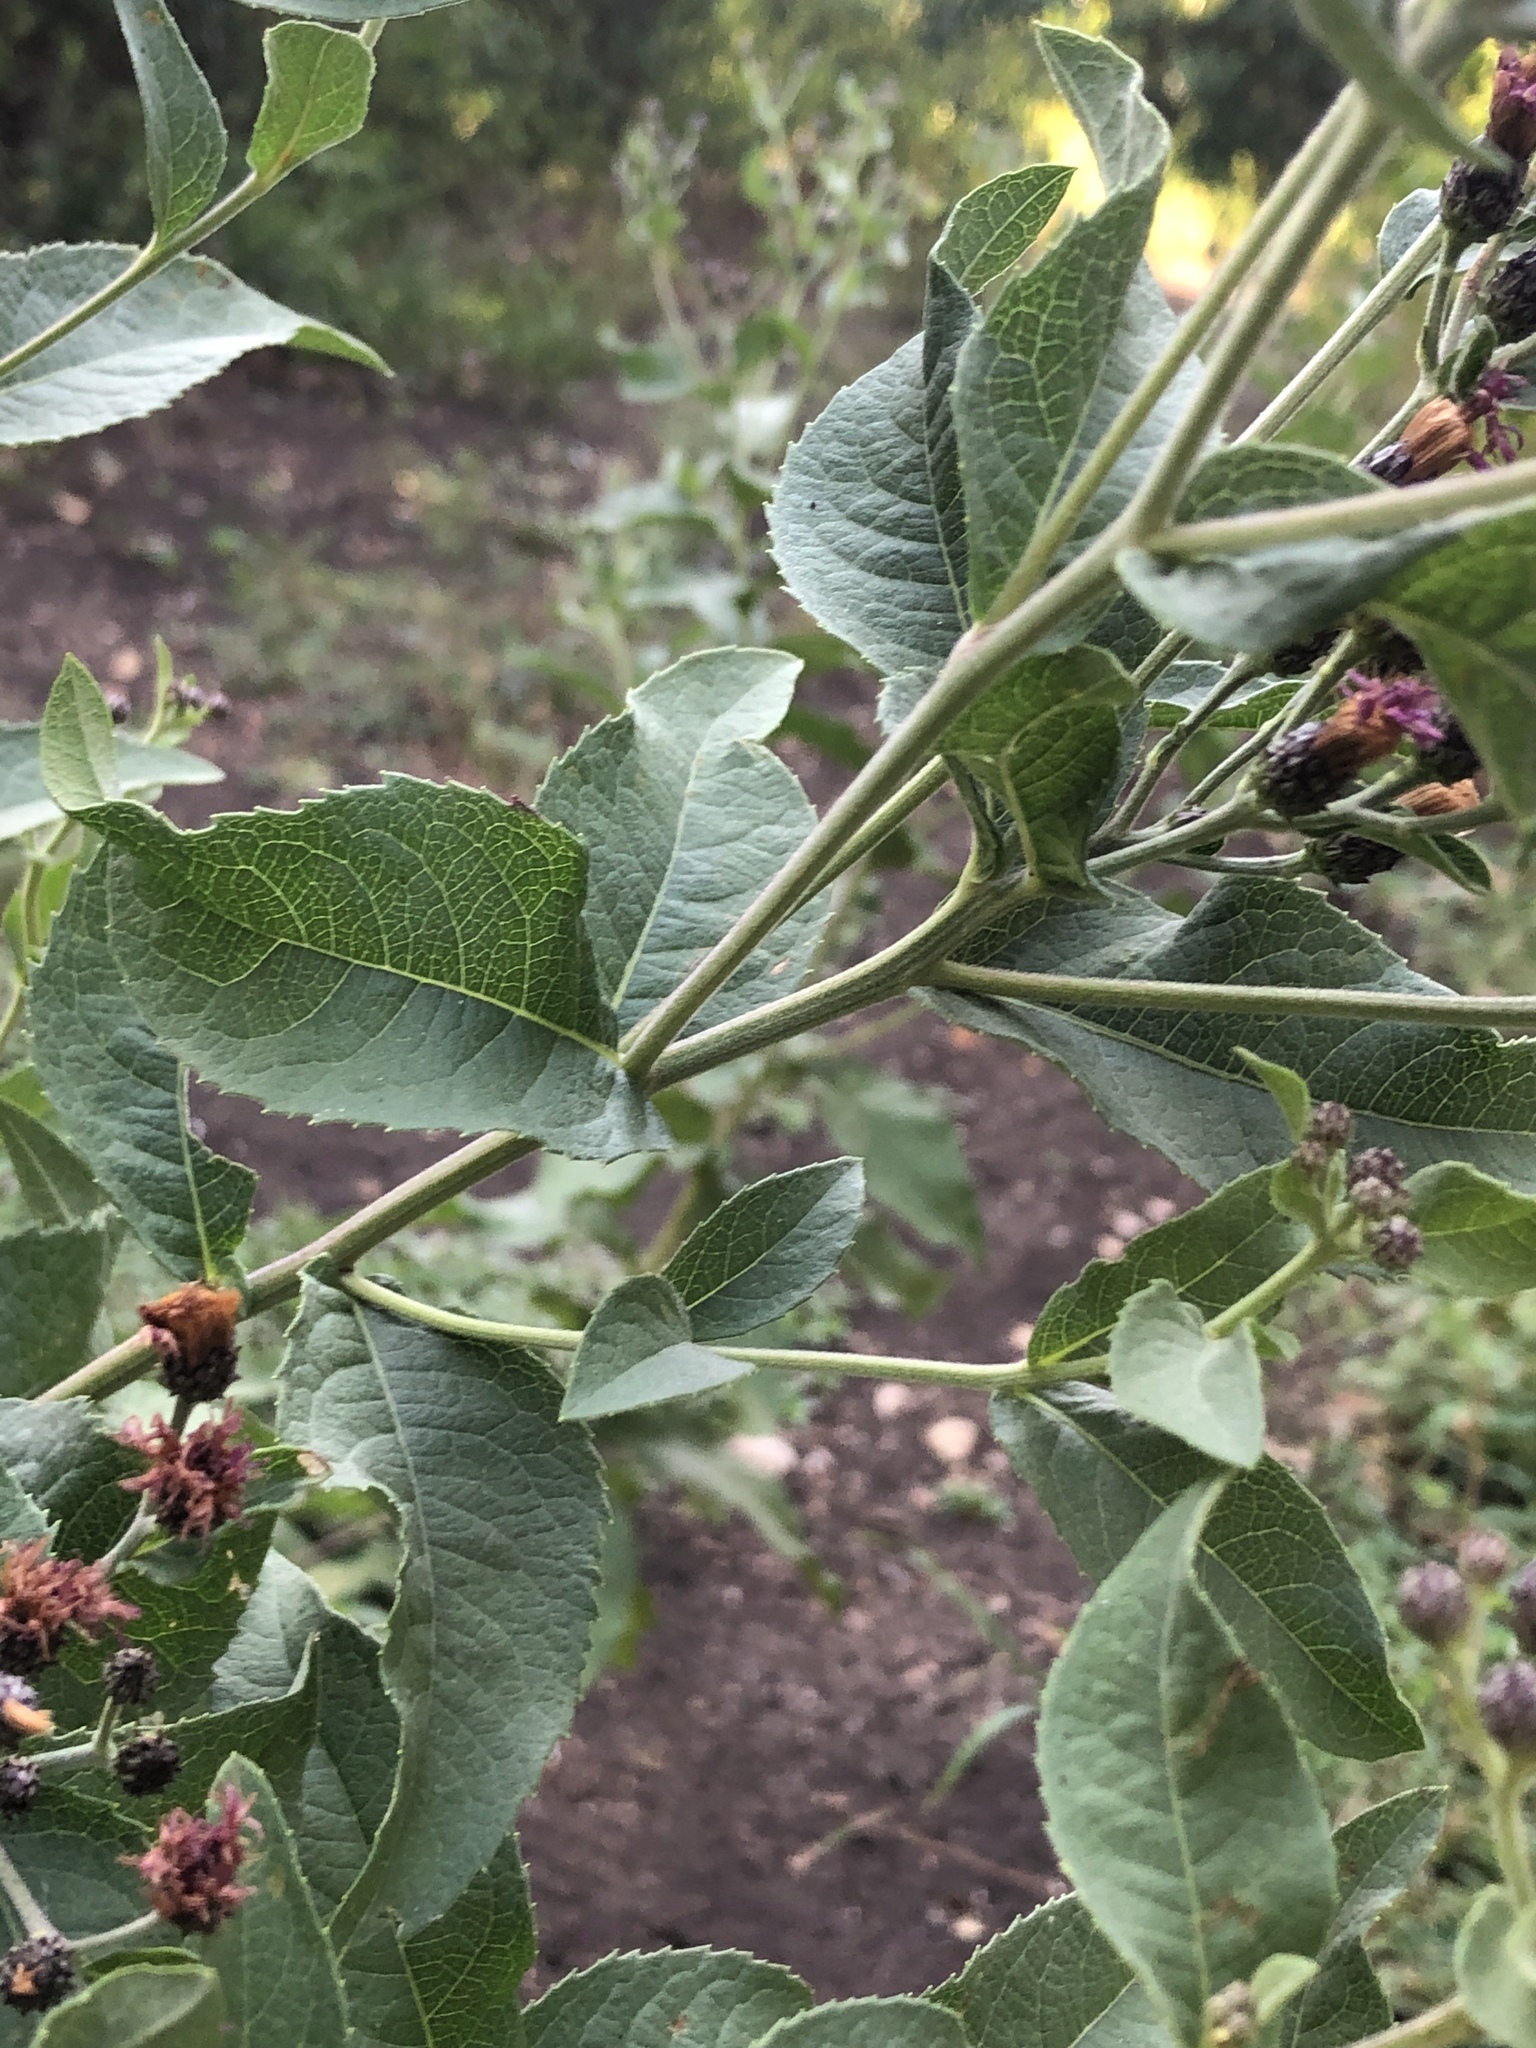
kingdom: Plantae
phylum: Tracheophyta
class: Magnoliopsida
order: Asterales
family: Asteraceae
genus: Vernonia
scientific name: Vernonia baldwinii
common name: Western ironweed
